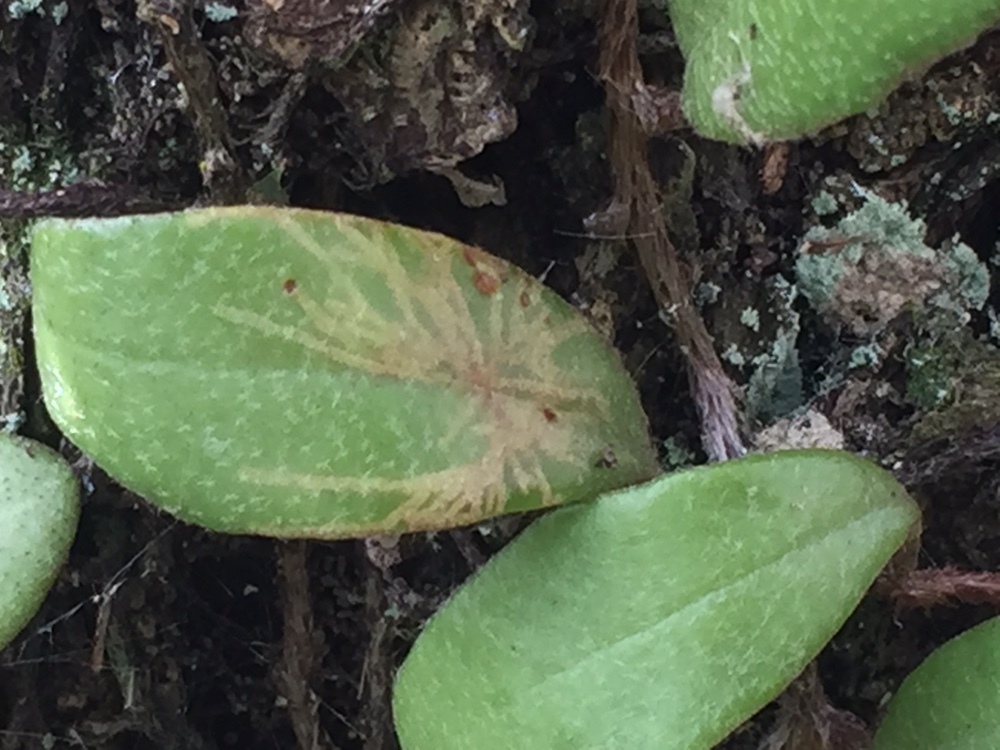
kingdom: Animalia
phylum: Arthropoda
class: Insecta
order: Lepidoptera
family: Tortricidae
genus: Philocryptica
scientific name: Philocryptica polypodii
